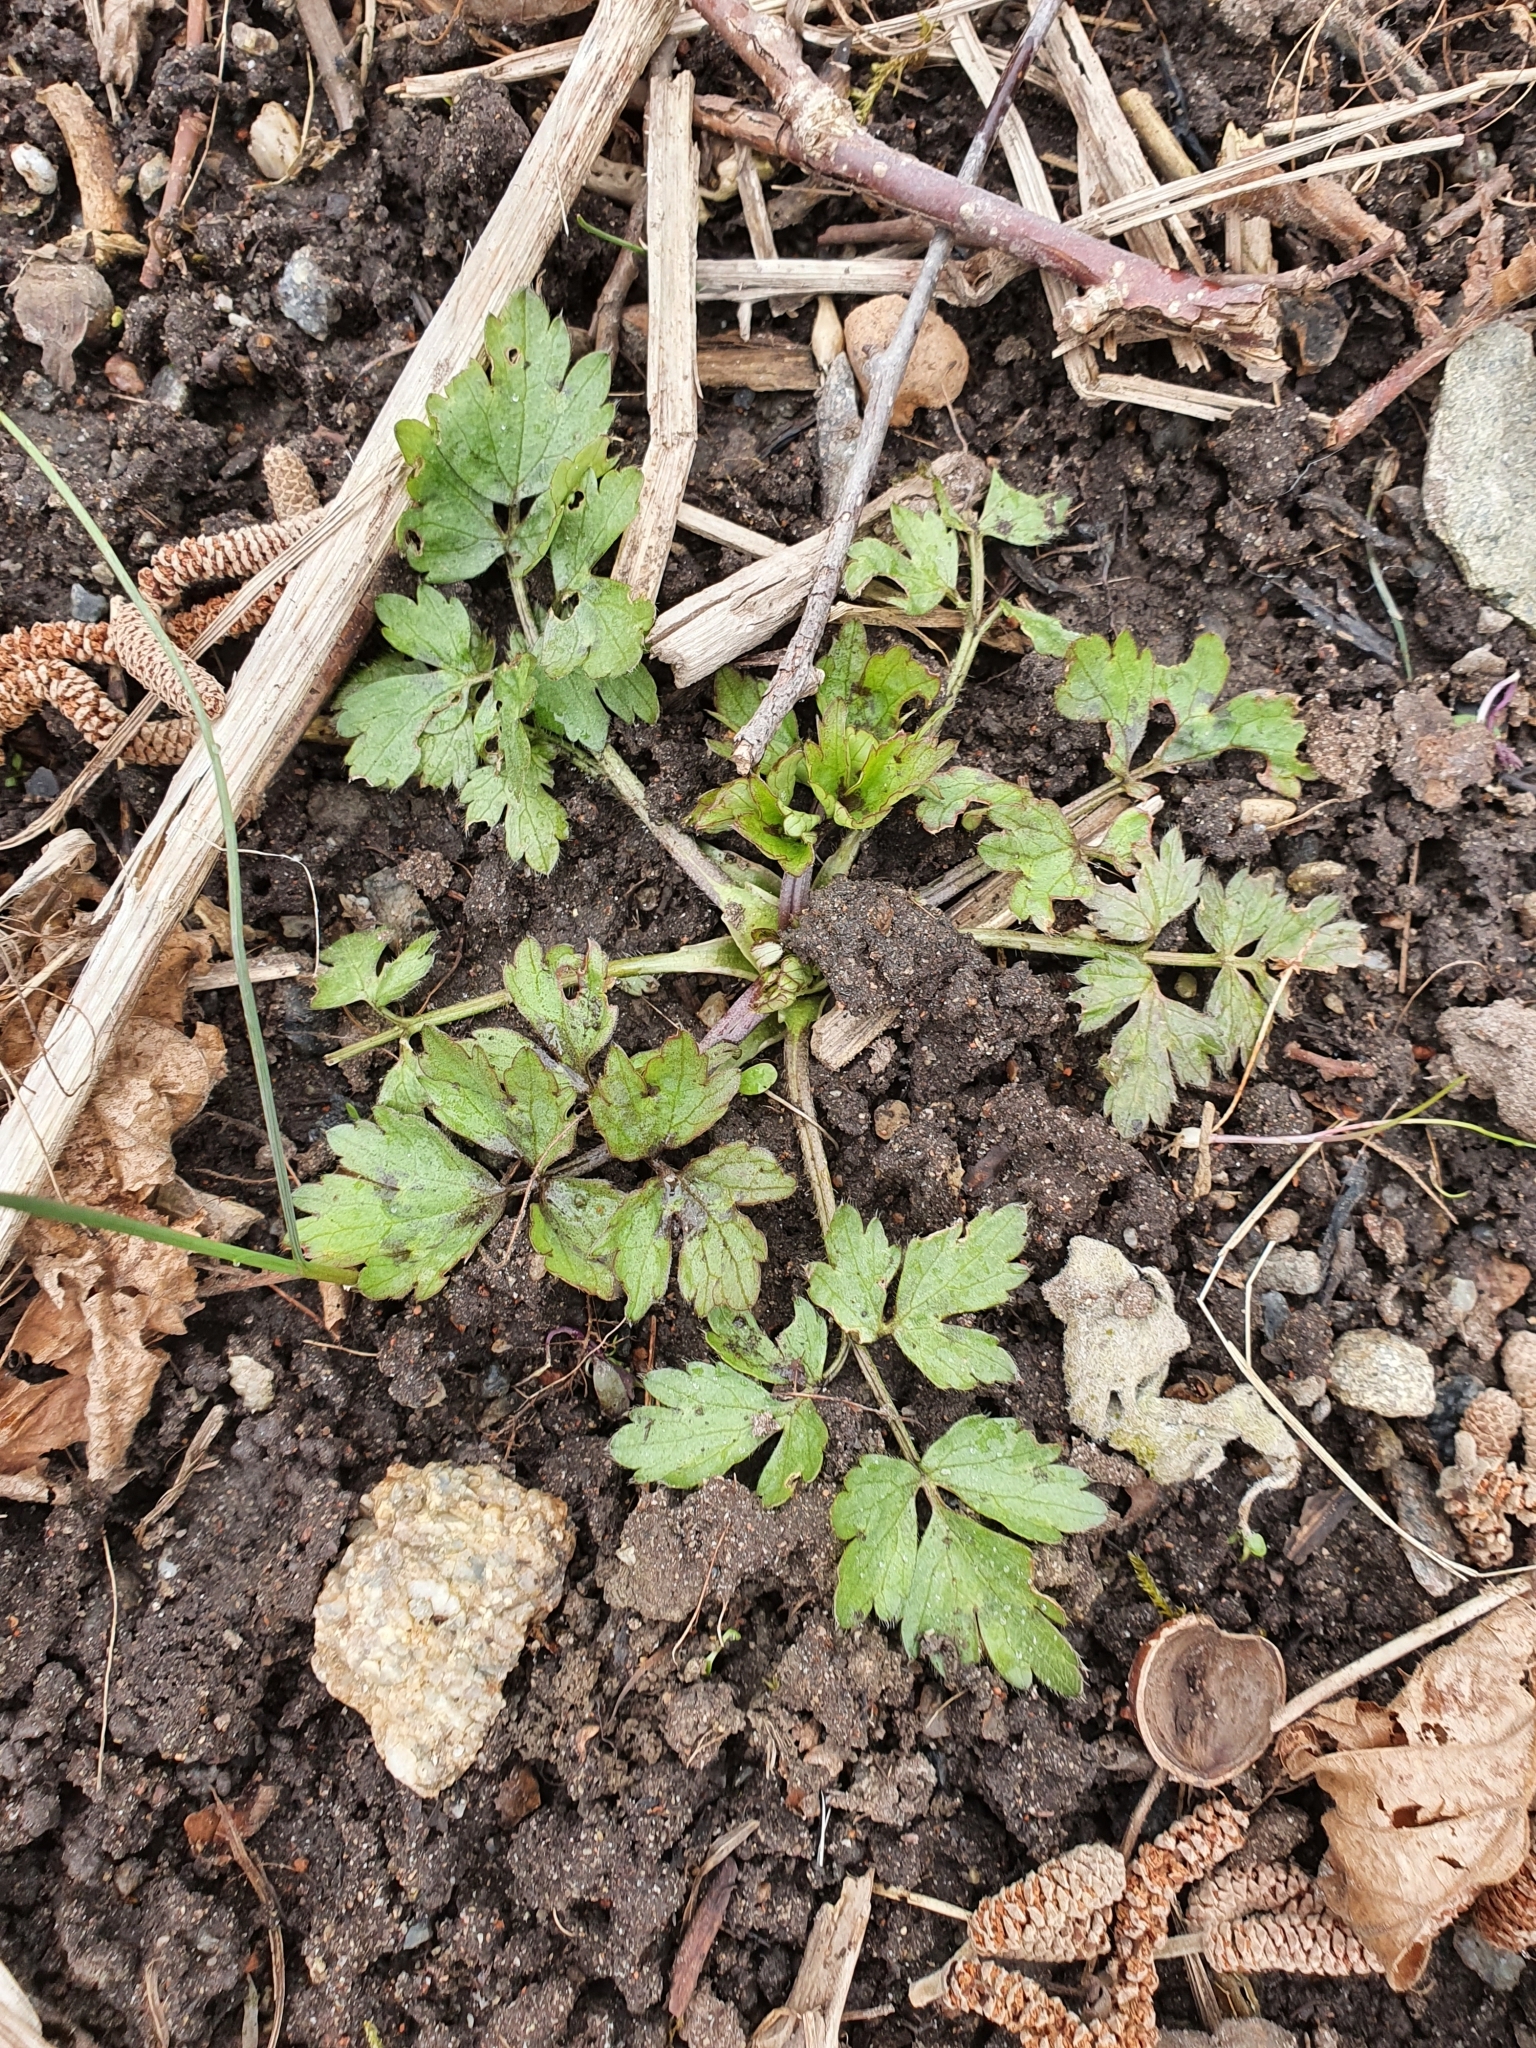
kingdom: Plantae
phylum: Tracheophyta
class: Magnoliopsida
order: Ranunculales
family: Ranunculaceae
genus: Ranunculus
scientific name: Ranunculus repens
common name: Creeping buttercup
